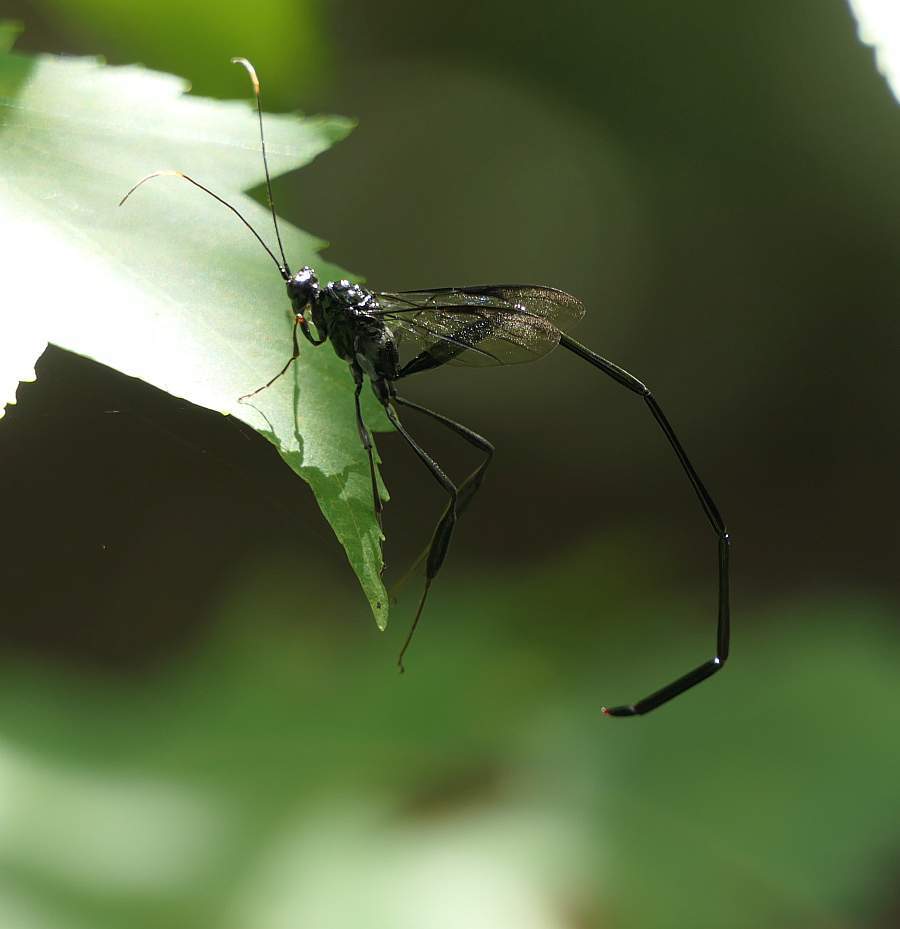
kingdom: Animalia
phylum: Arthropoda
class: Insecta
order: Hymenoptera
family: Pelecinidae
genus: Pelecinus
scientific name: Pelecinus polyturator
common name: American pelecinid wasp
